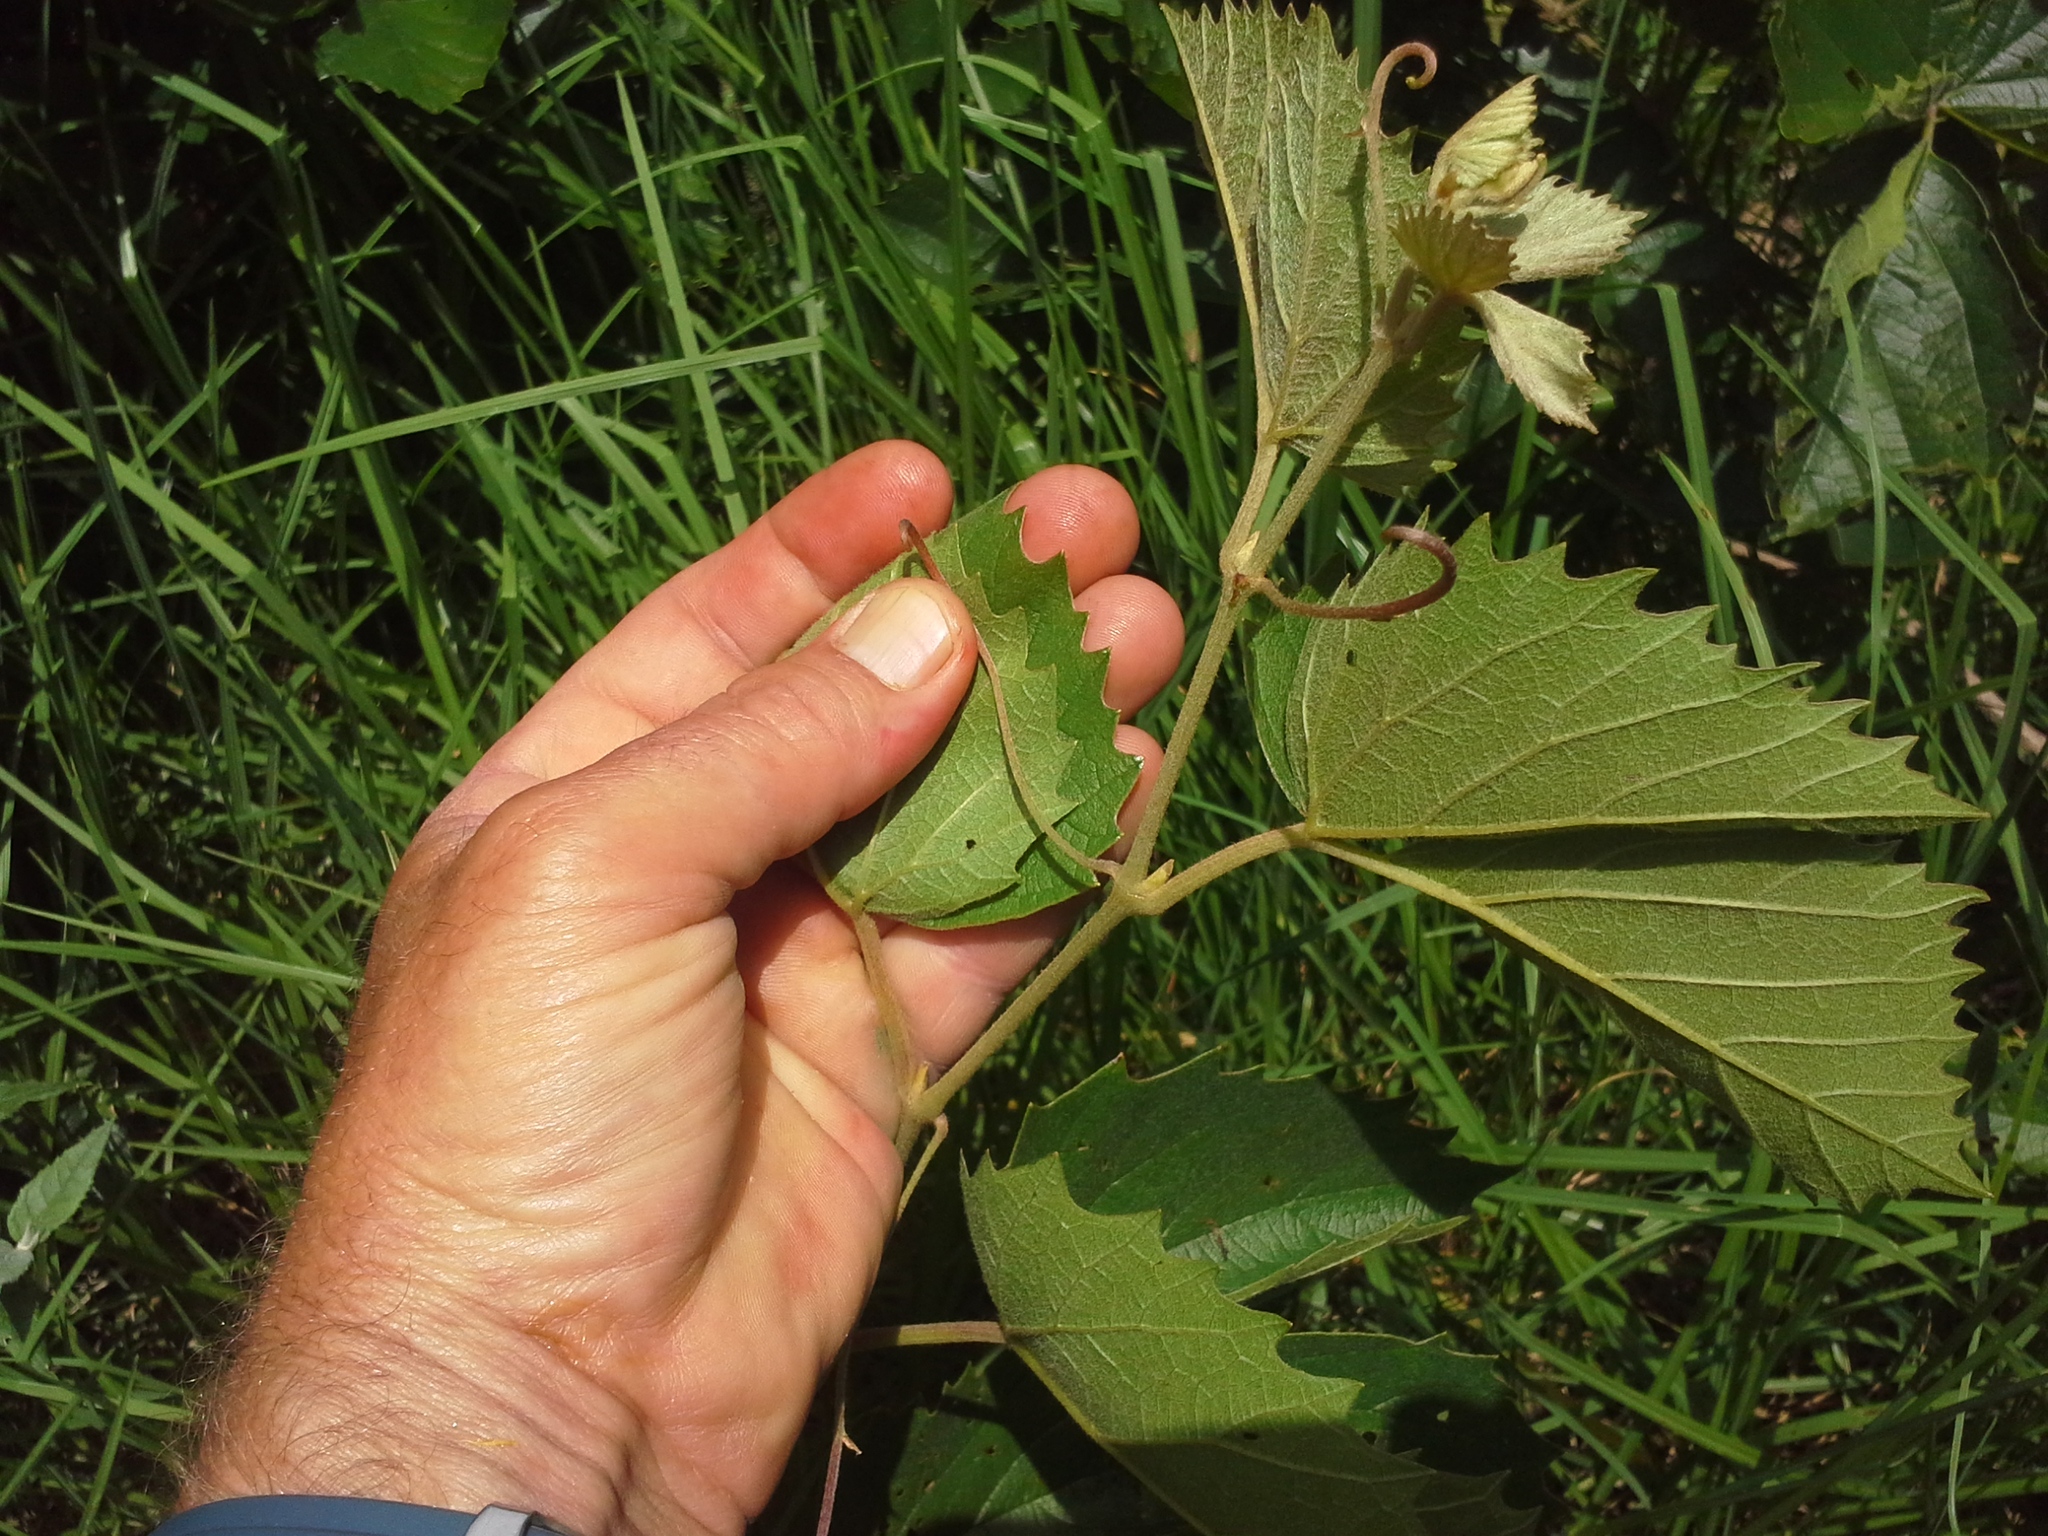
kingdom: Plantae
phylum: Tracheophyta
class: Magnoliopsida
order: Vitales
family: Vitaceae
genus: Rhoicissus
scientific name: Rhoicissus tridentata
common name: Common forest grape
